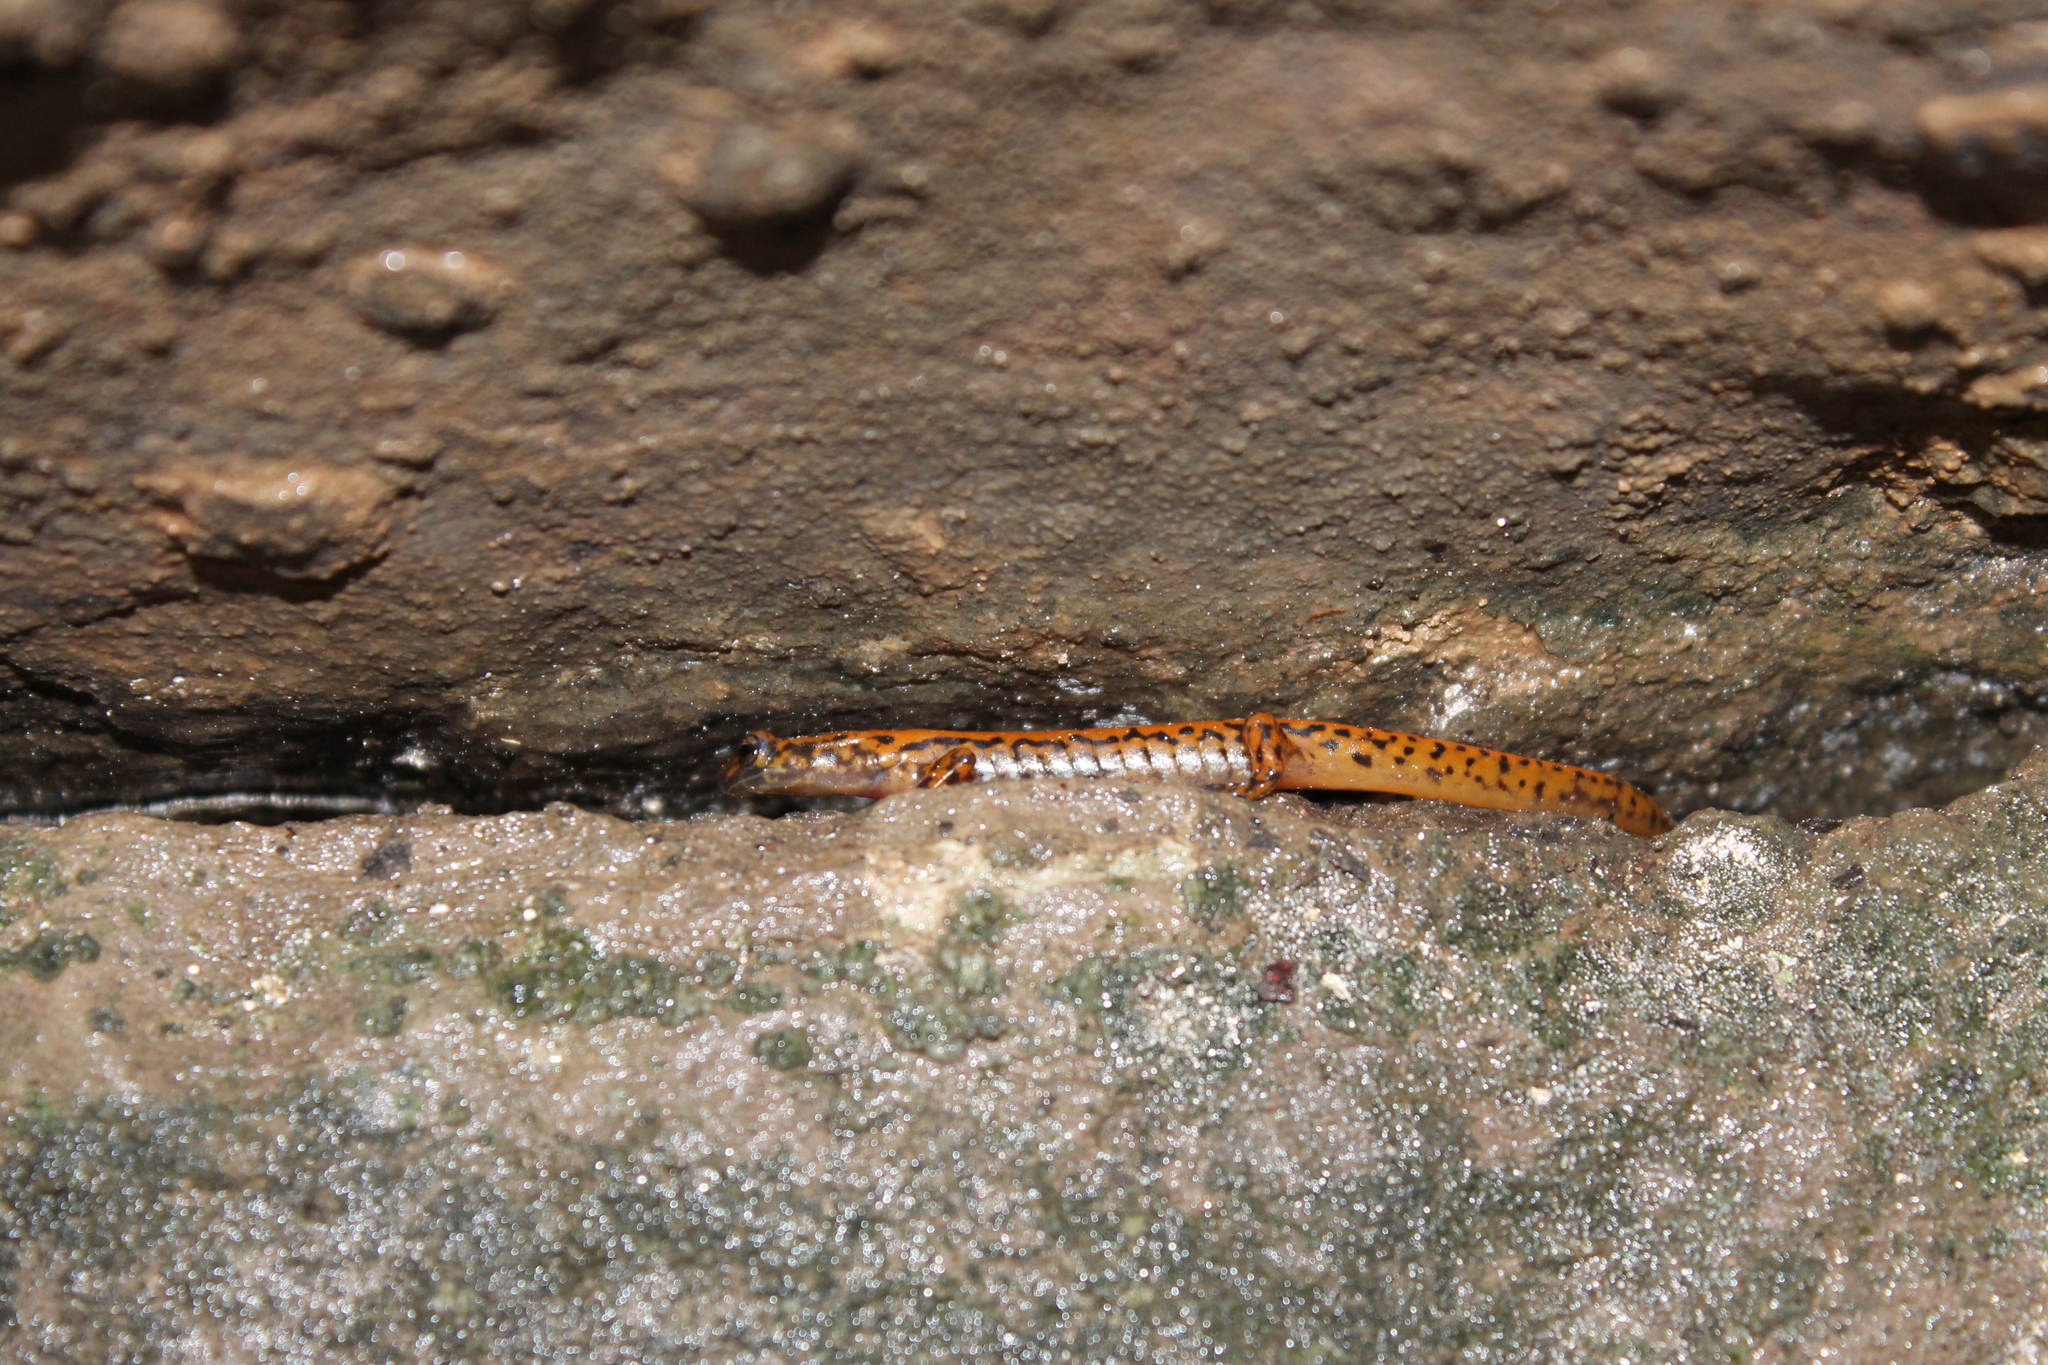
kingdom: Animalia
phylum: Chordata
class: Amphibia
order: Caudata
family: Plethodontidae
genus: Eurycea
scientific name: Eurycea lucifuga
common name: Cave salamander
